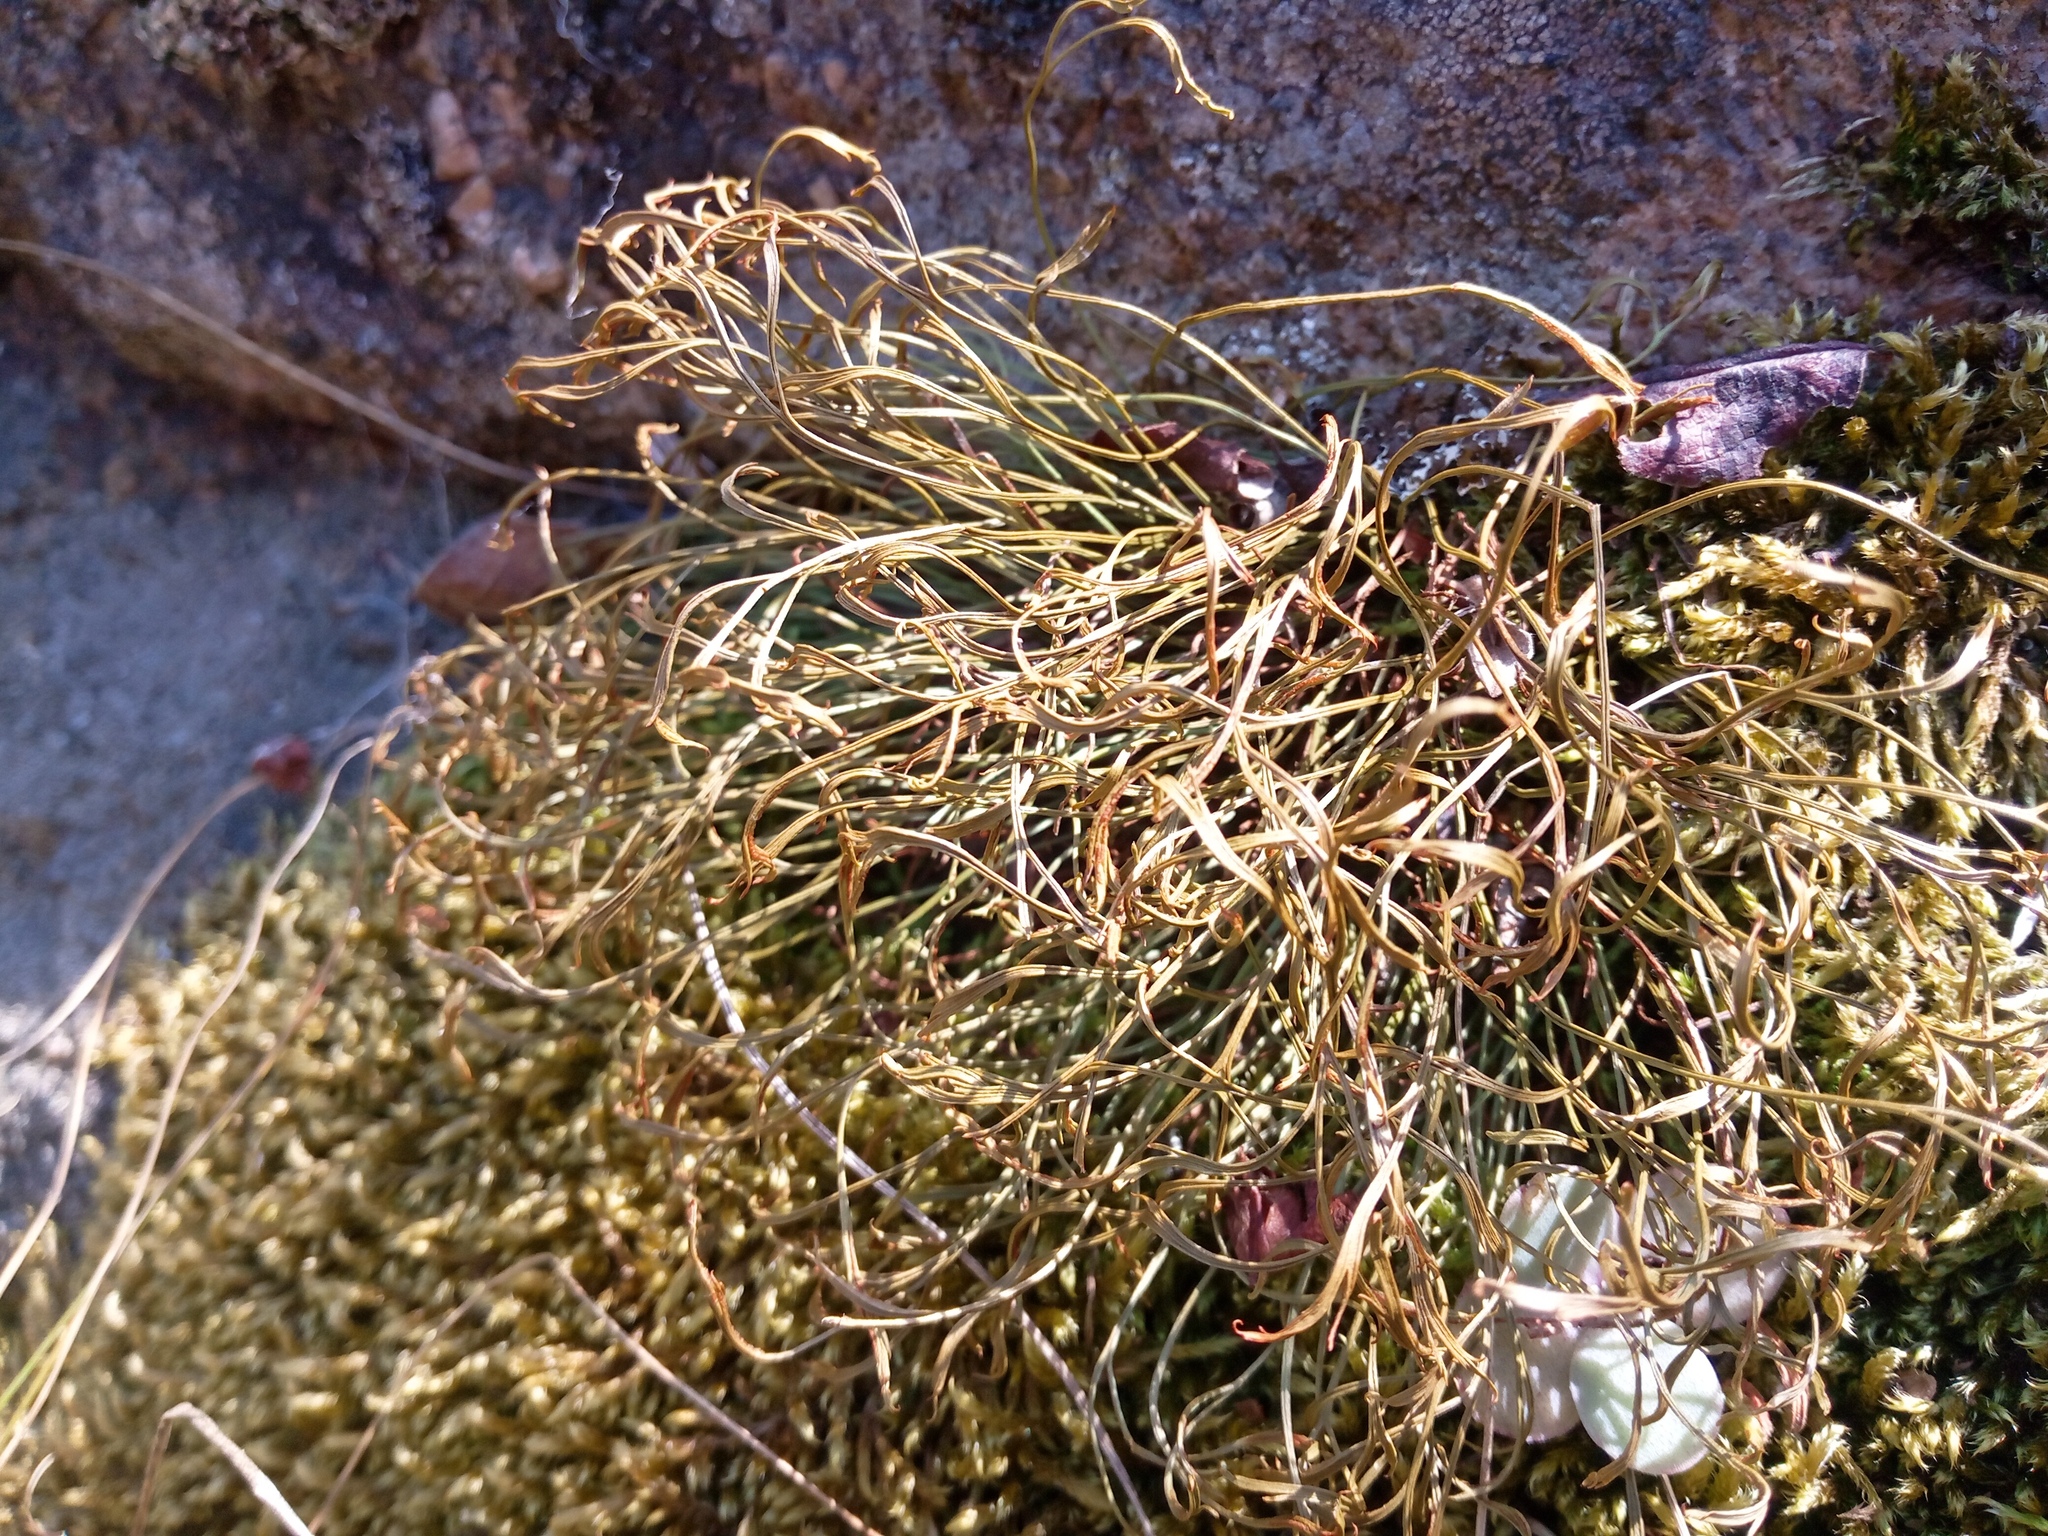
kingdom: Plantae
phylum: Tracheophyta
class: Polypodiopsida
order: Polypodiales
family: Aspleniaceae
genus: Asplenium
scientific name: Asplenium septentrionale
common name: Forked spleenwort
